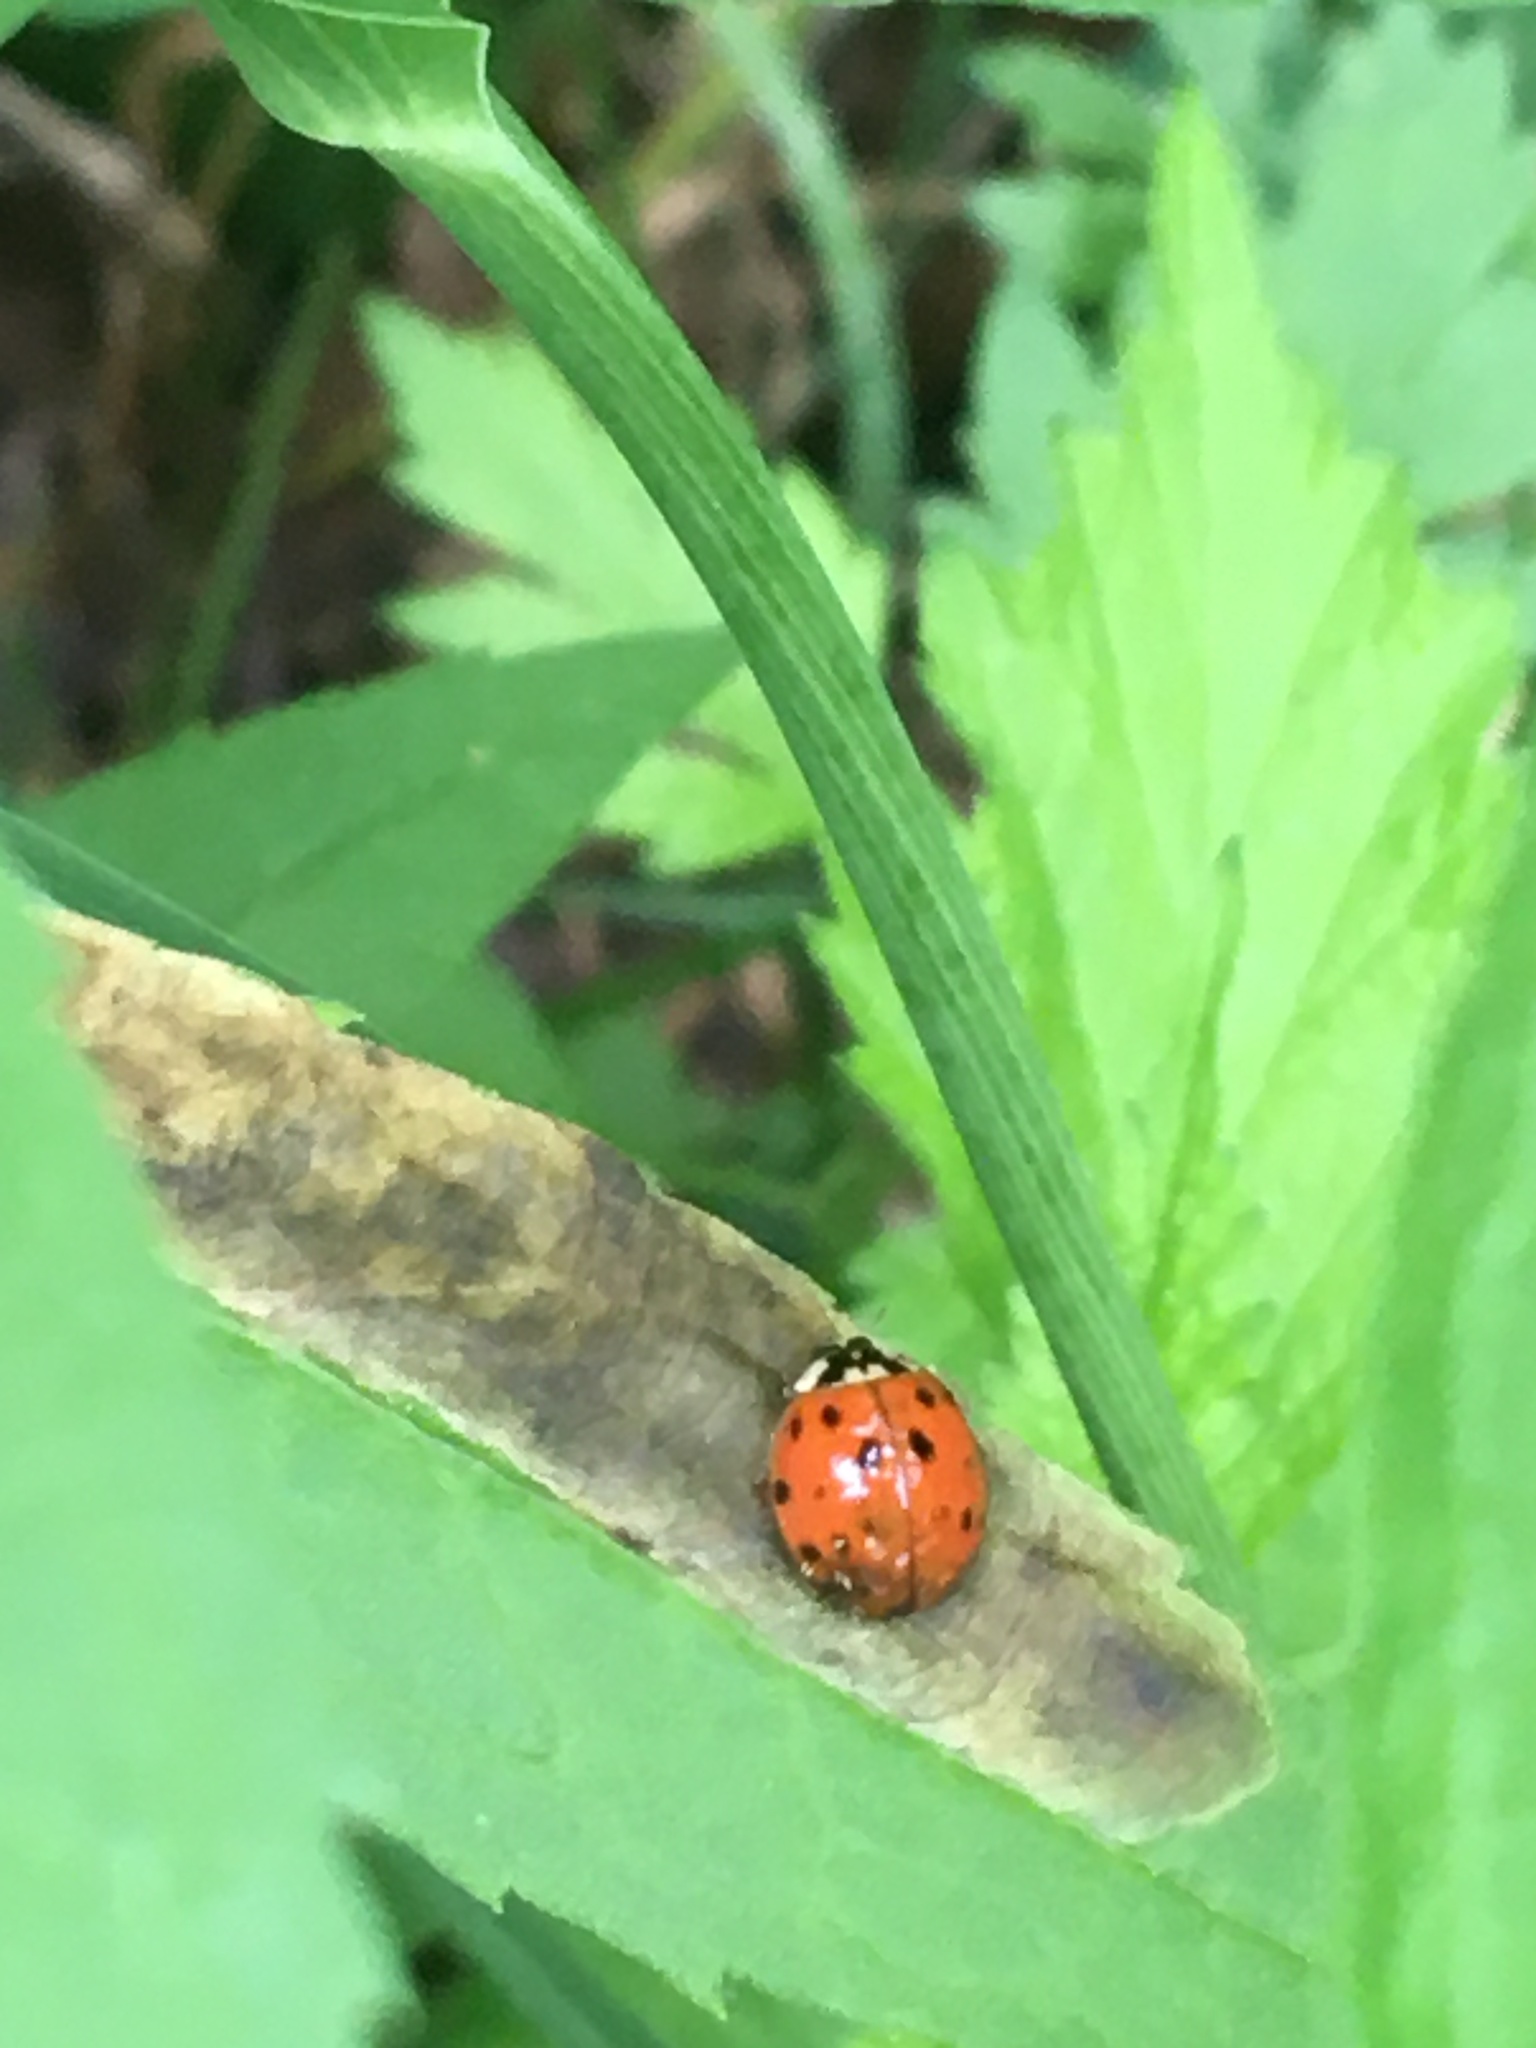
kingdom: Animalia
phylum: Arthropoda
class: Insecta
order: Coleoptera
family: Coccinellidae
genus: Harmonia
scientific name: Harmonia axyridis
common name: Harlequin ladybird
